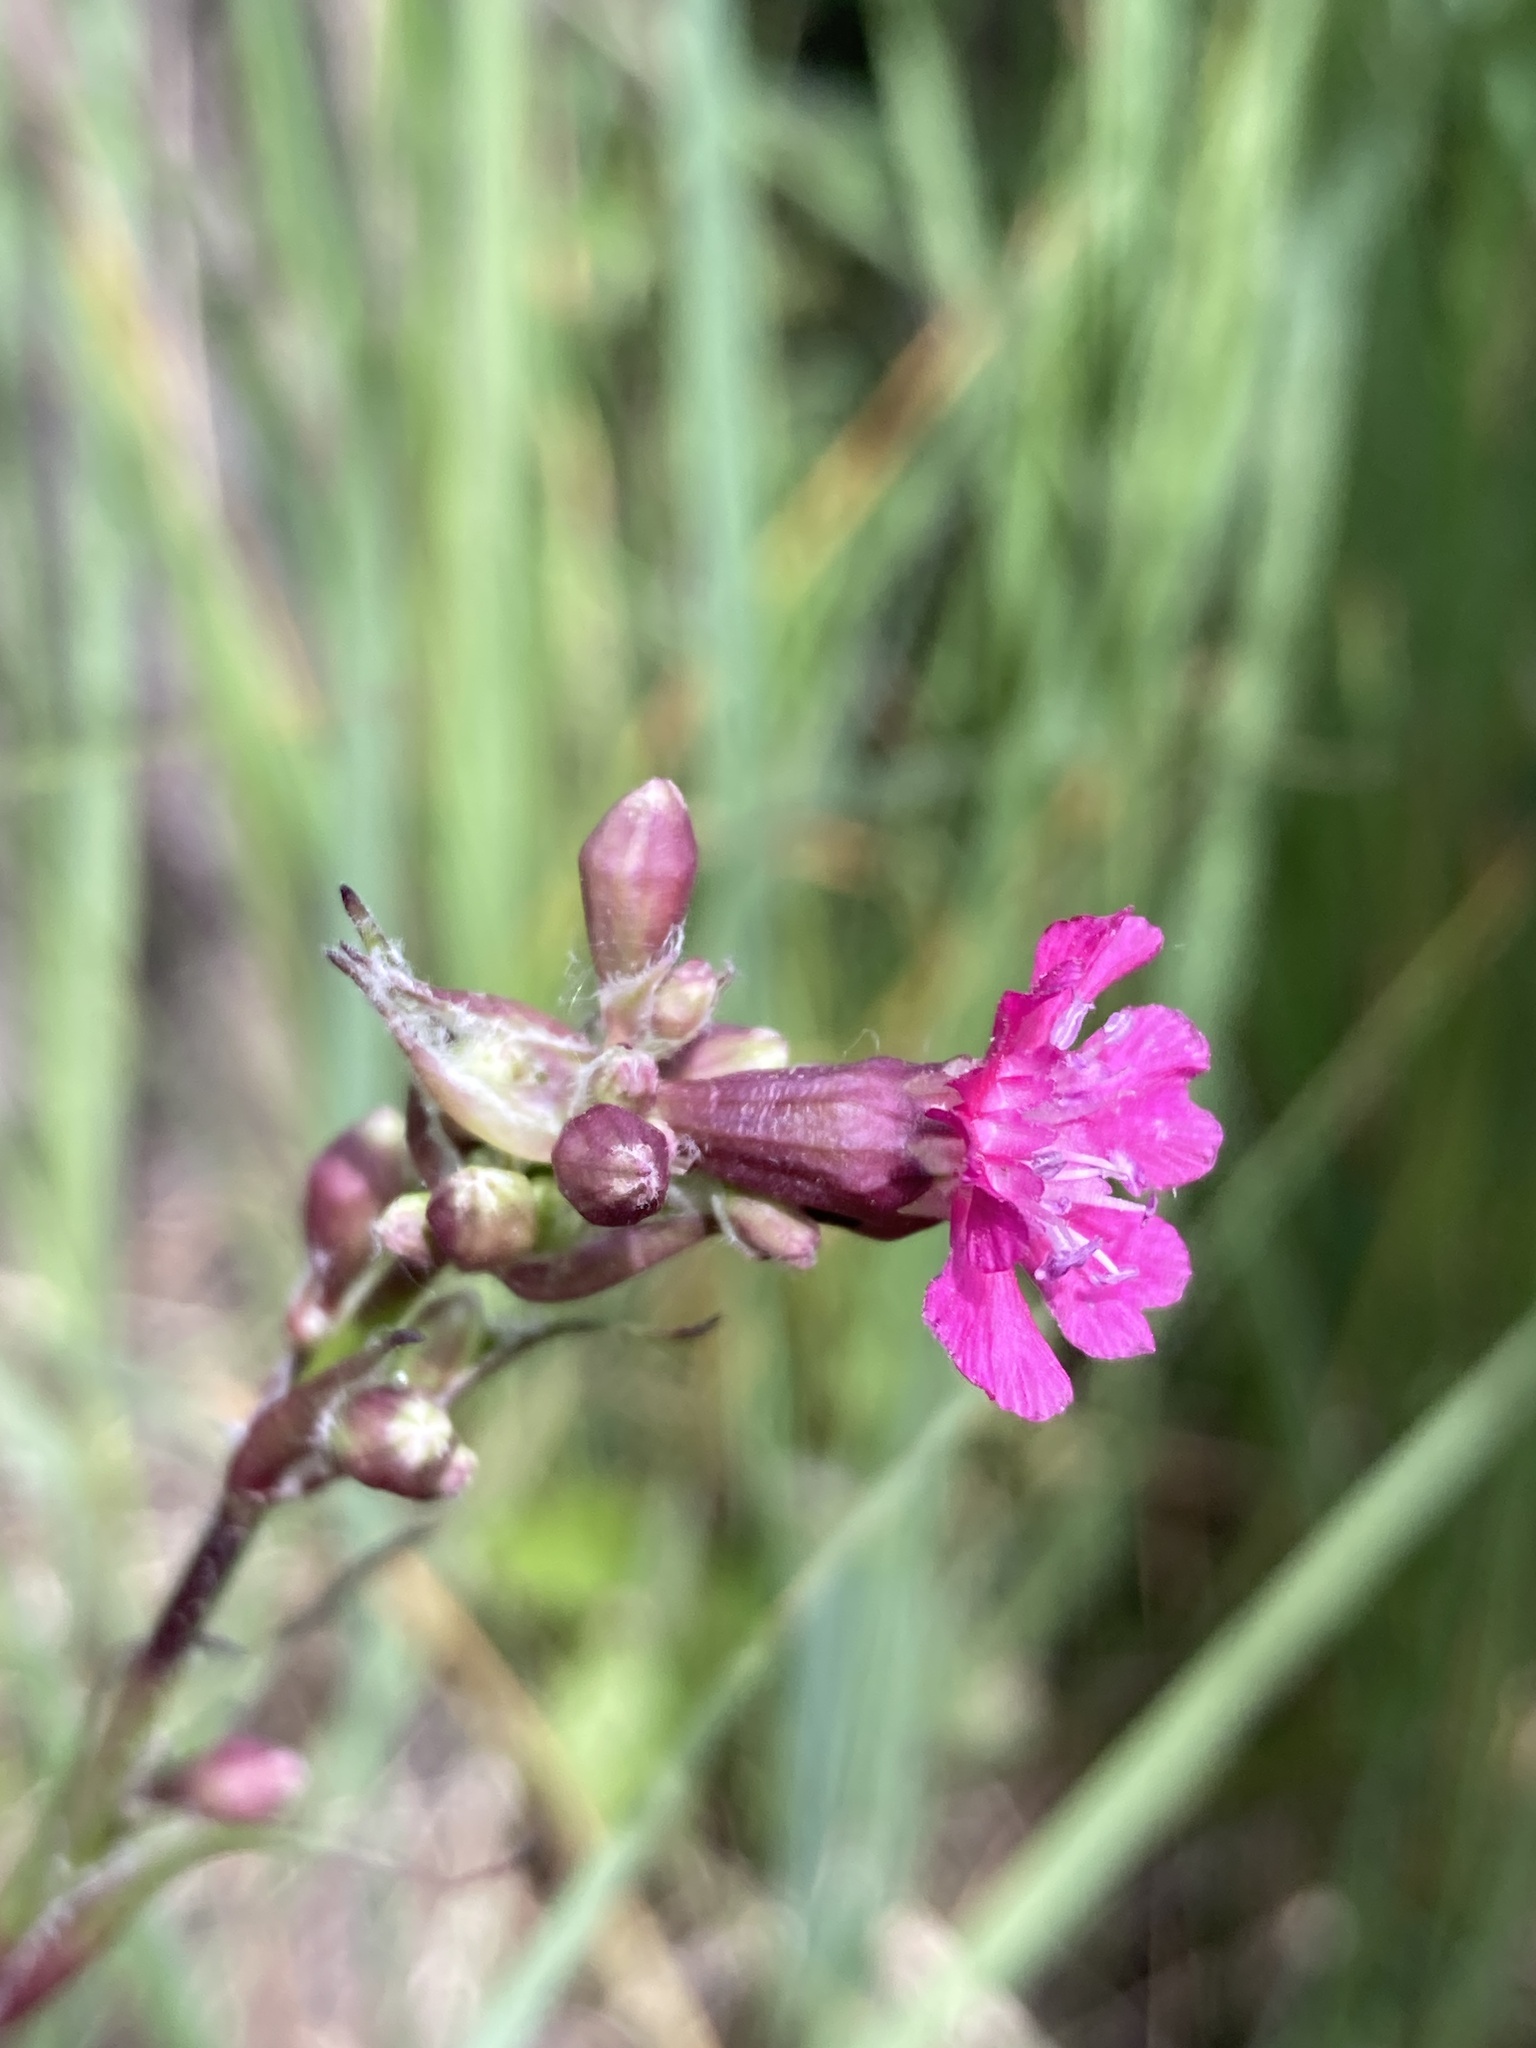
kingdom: Plantae
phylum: Tracheophyta
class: Magnoliopsida
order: Caryophyllales
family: Caryophyllaceae
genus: Viscaria
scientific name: Viscaria vulgaris
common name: Clammy campion
